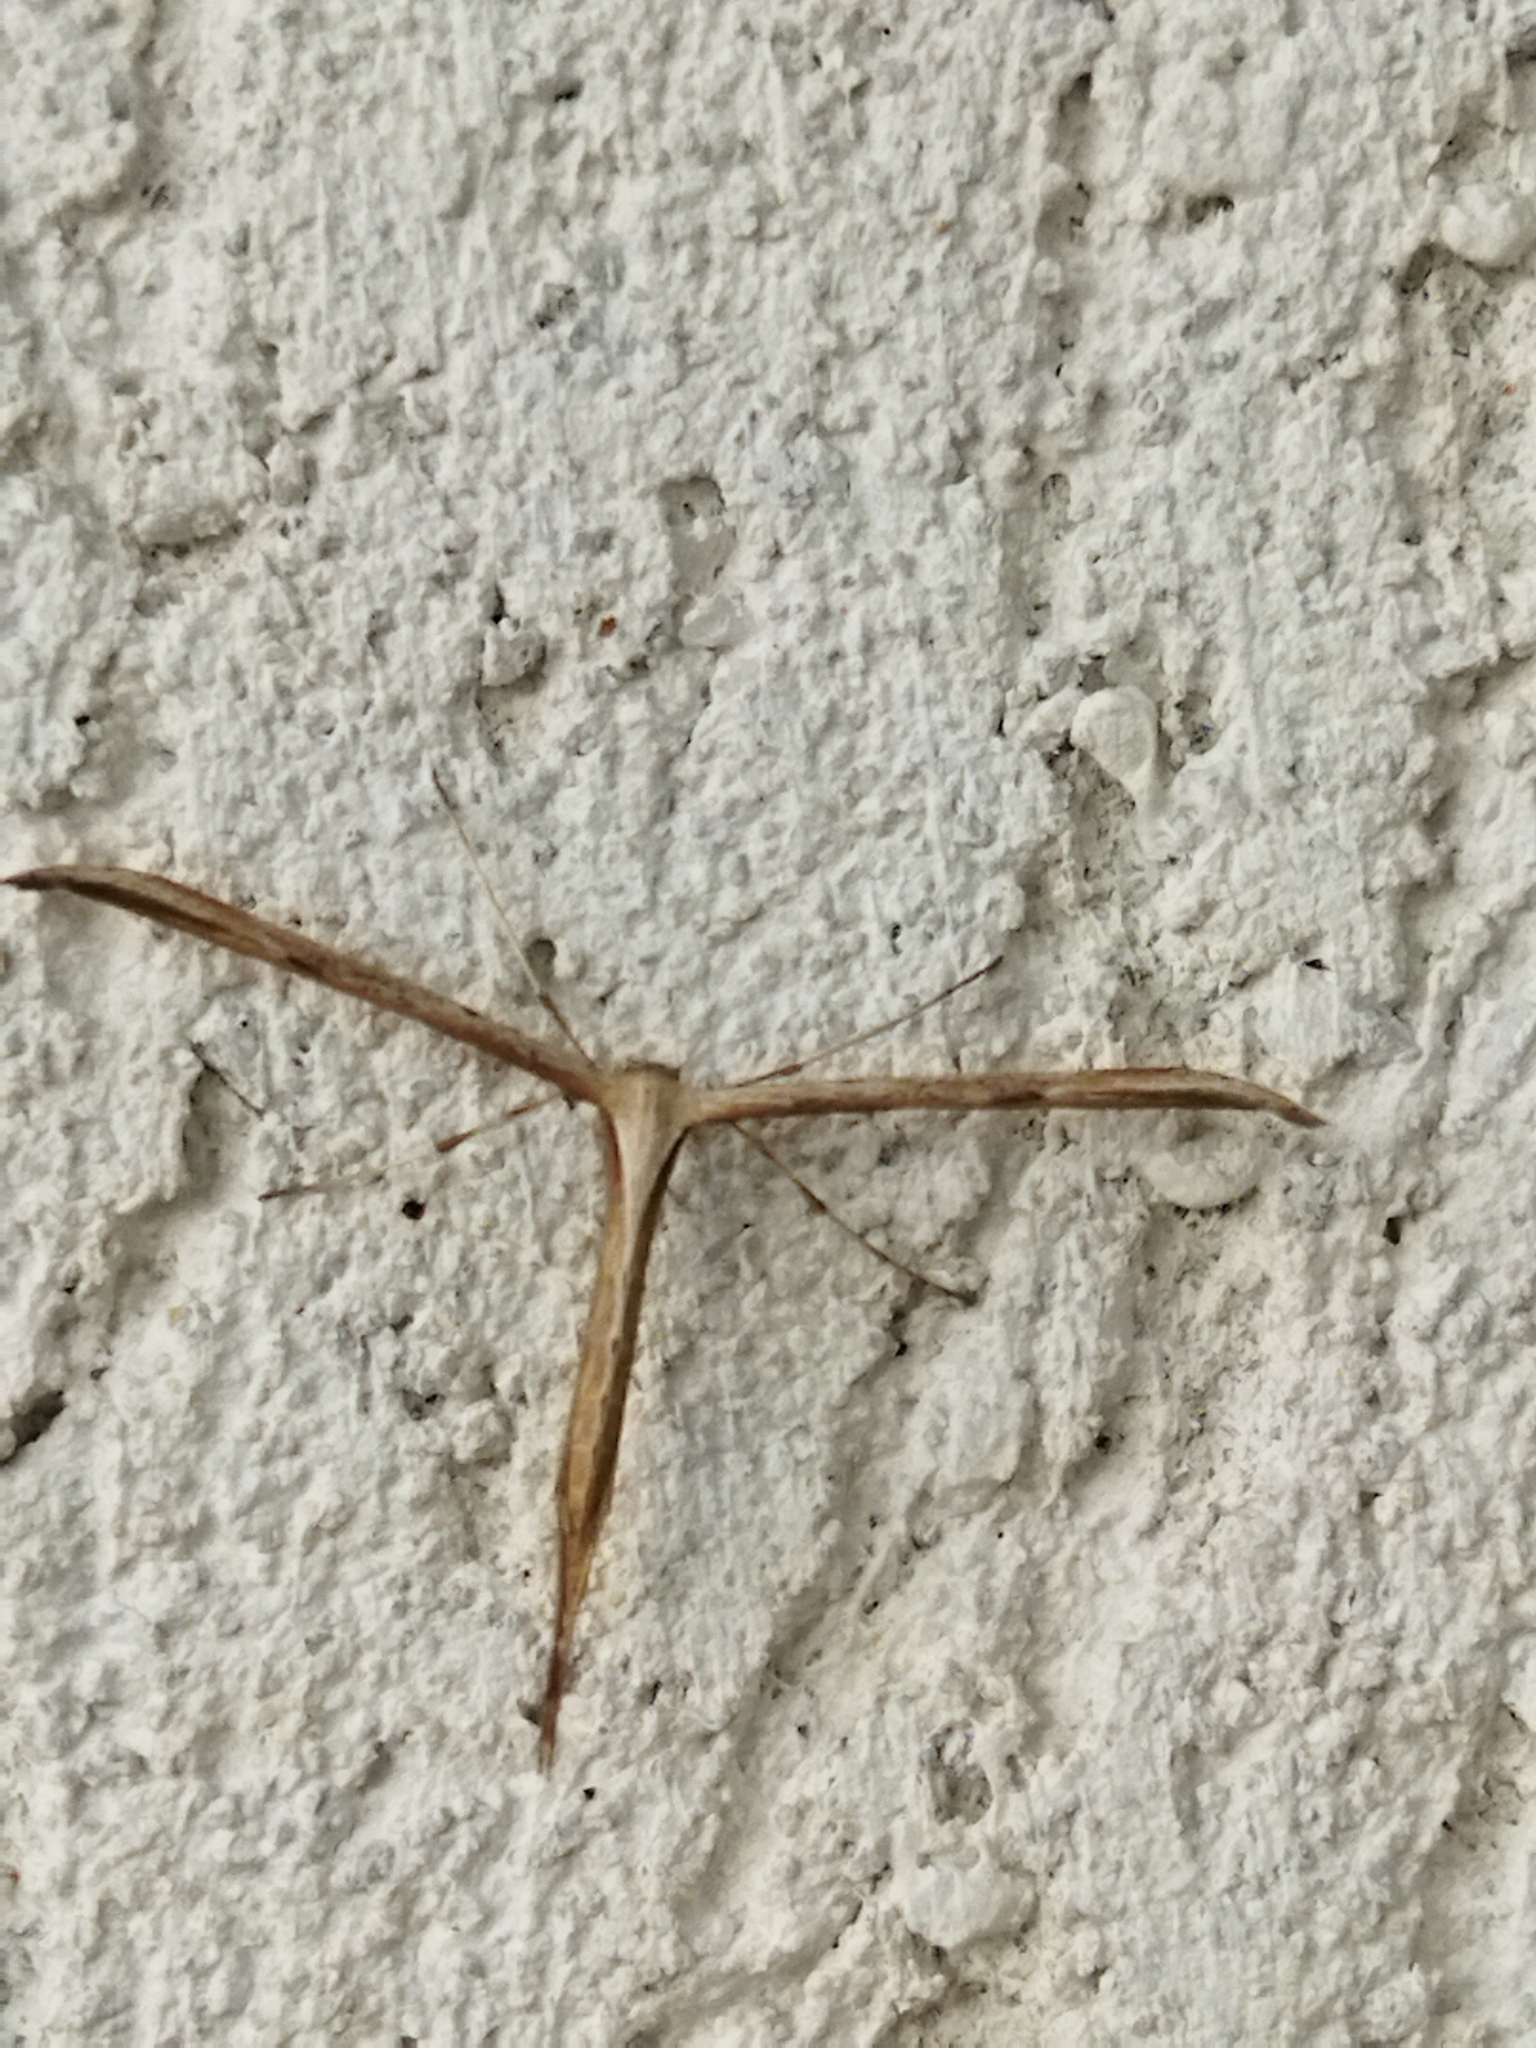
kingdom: Animalia
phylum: Arthropoda
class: Insecta
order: Lepidoptera
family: Pterophoridae
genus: Emmelina
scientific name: Emmelina monodactyla
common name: Common plume
